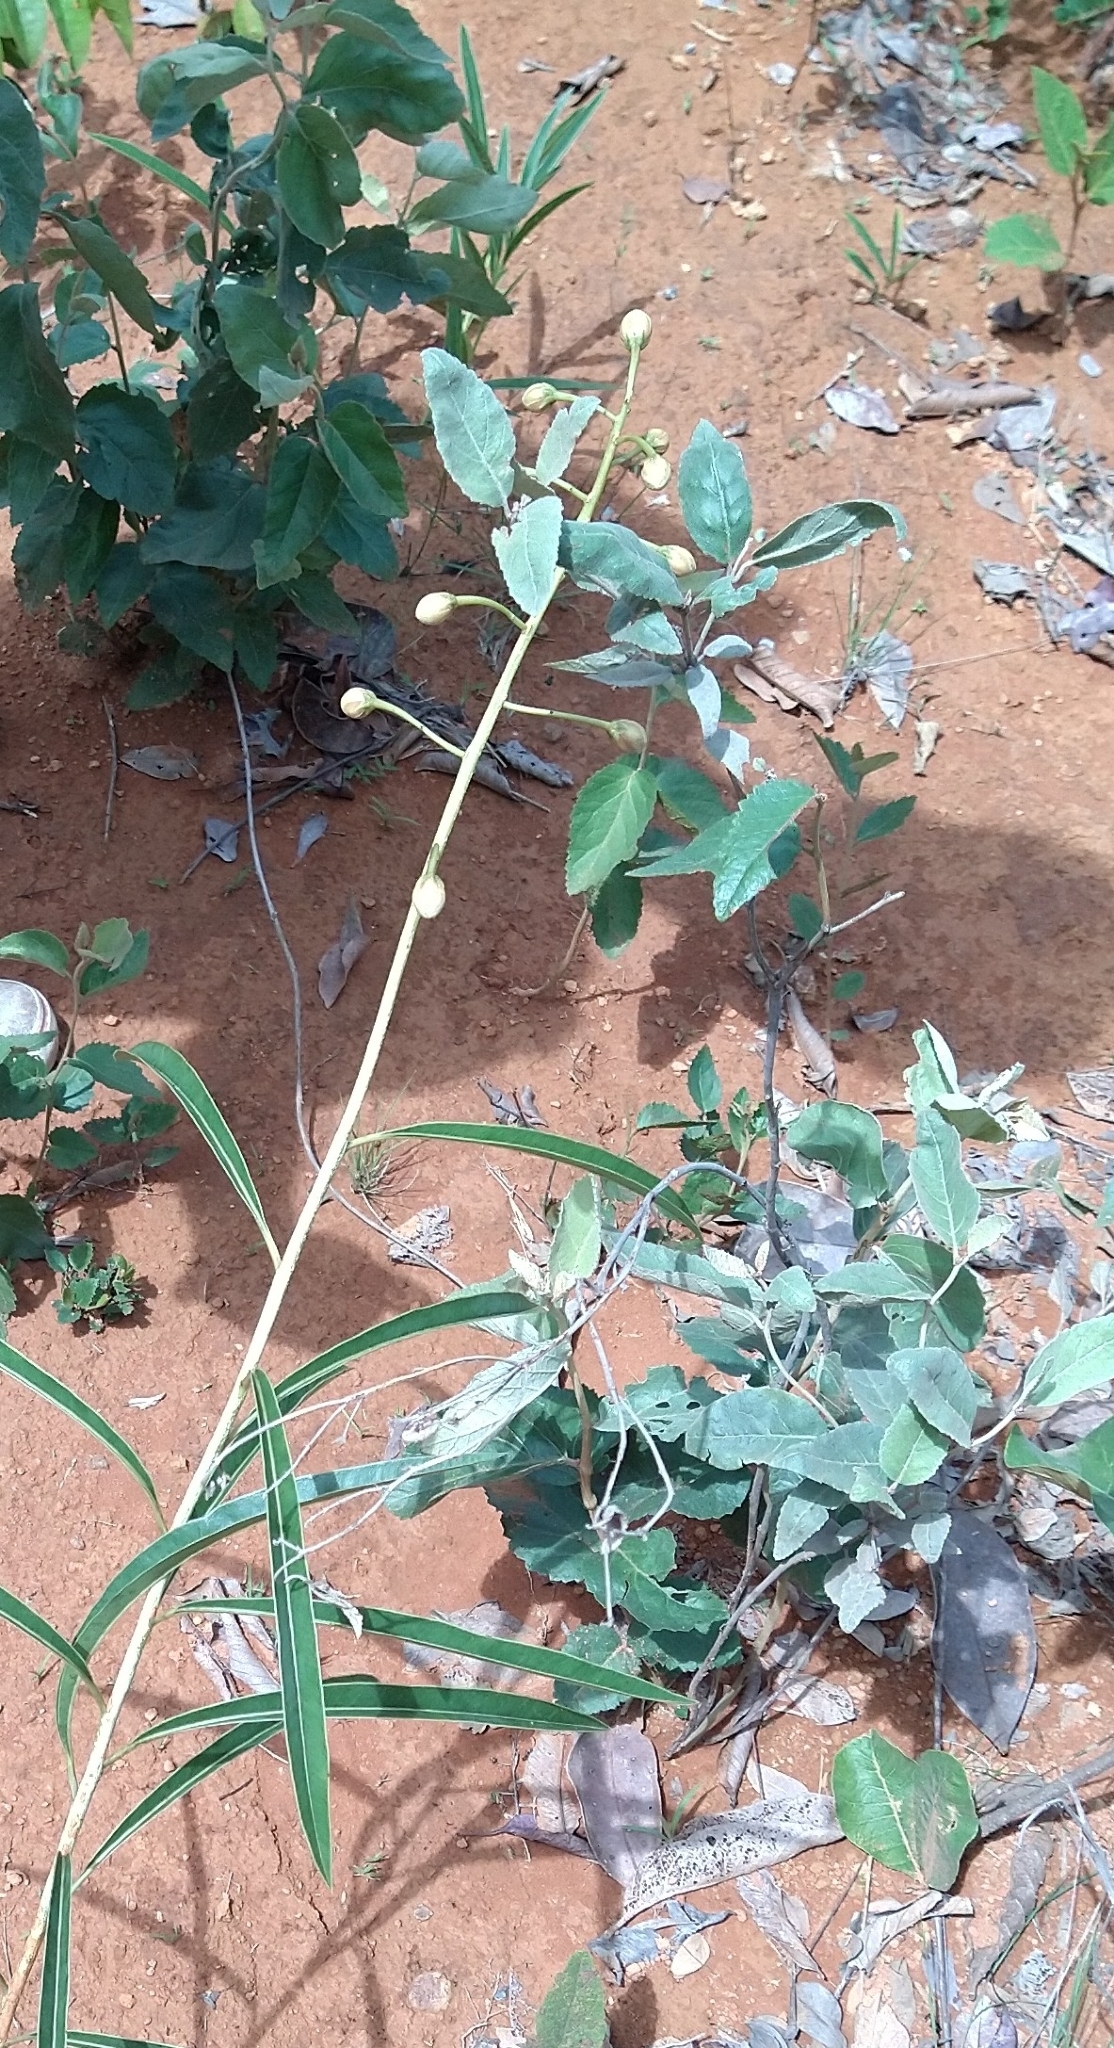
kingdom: Plantae
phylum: Tracheophyta
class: Magnoliopsida
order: Malpighiales
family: Calophyllaceae
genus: Kielmeyera
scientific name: Kielmeyera abdita
